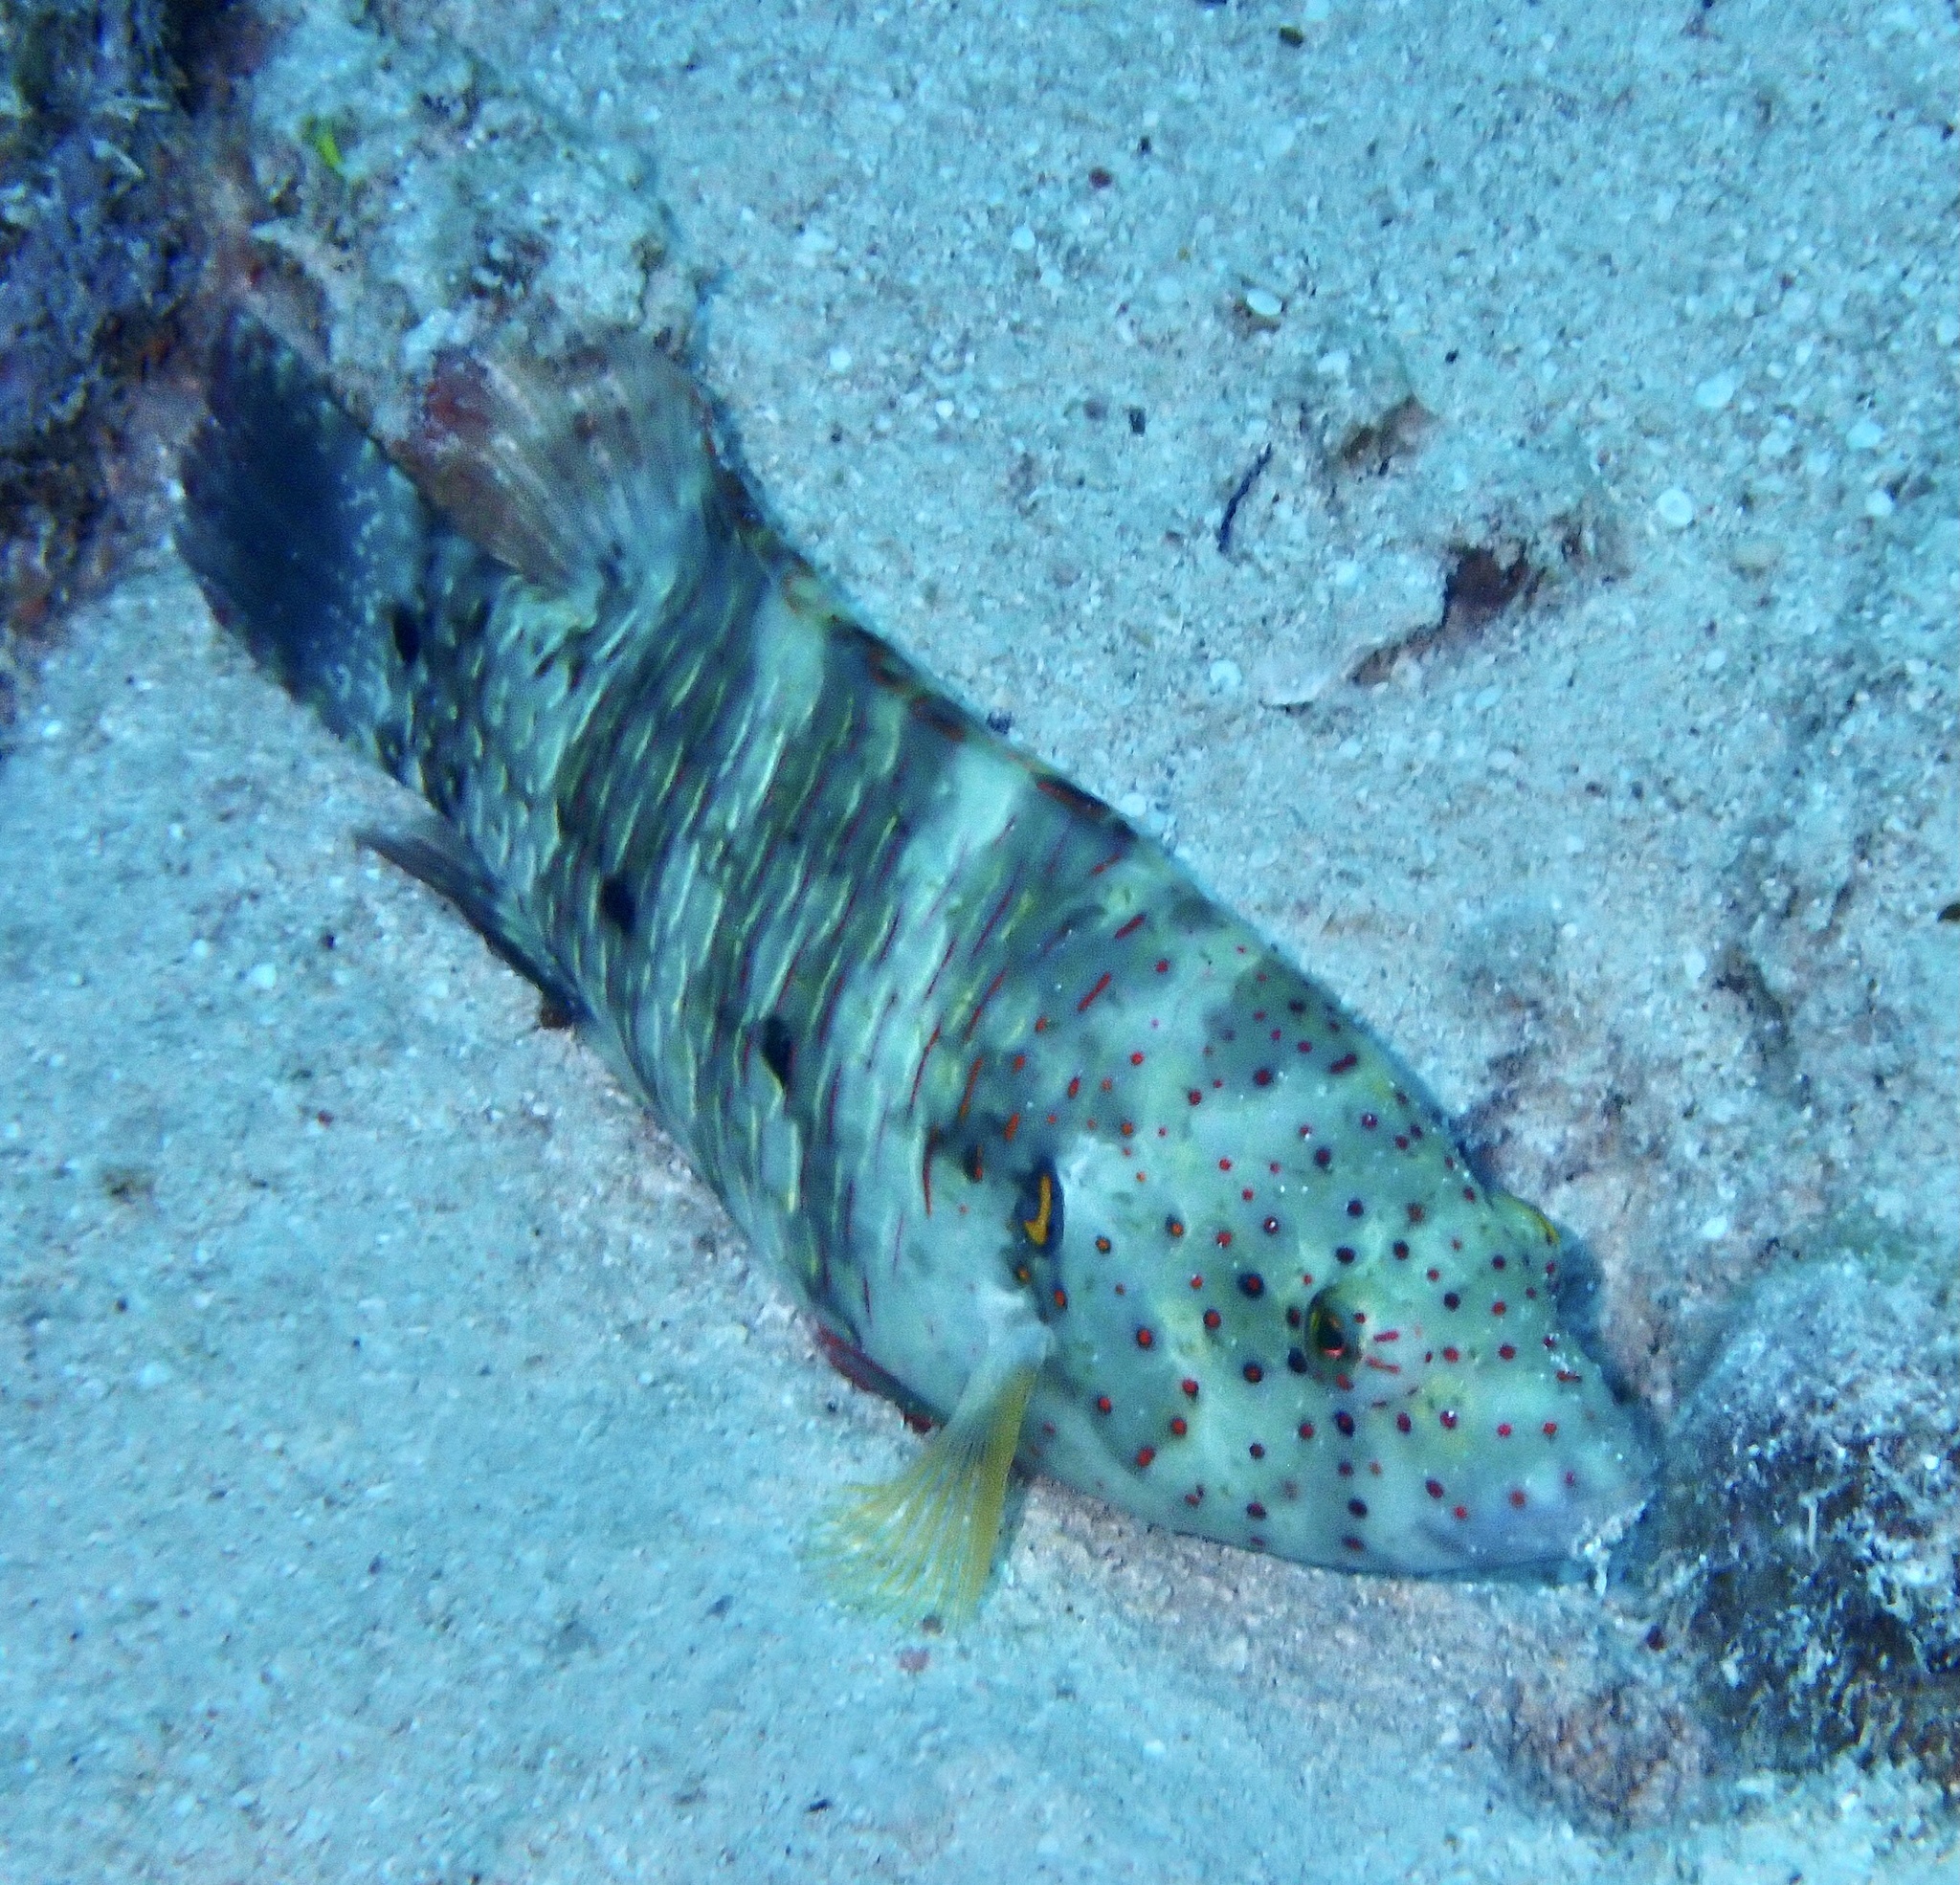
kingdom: Animalia
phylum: Chordata
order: Perciformes
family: Labridae
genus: Cheilinus
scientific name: Cheilinus lunulatus
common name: Broomtail wrasse
